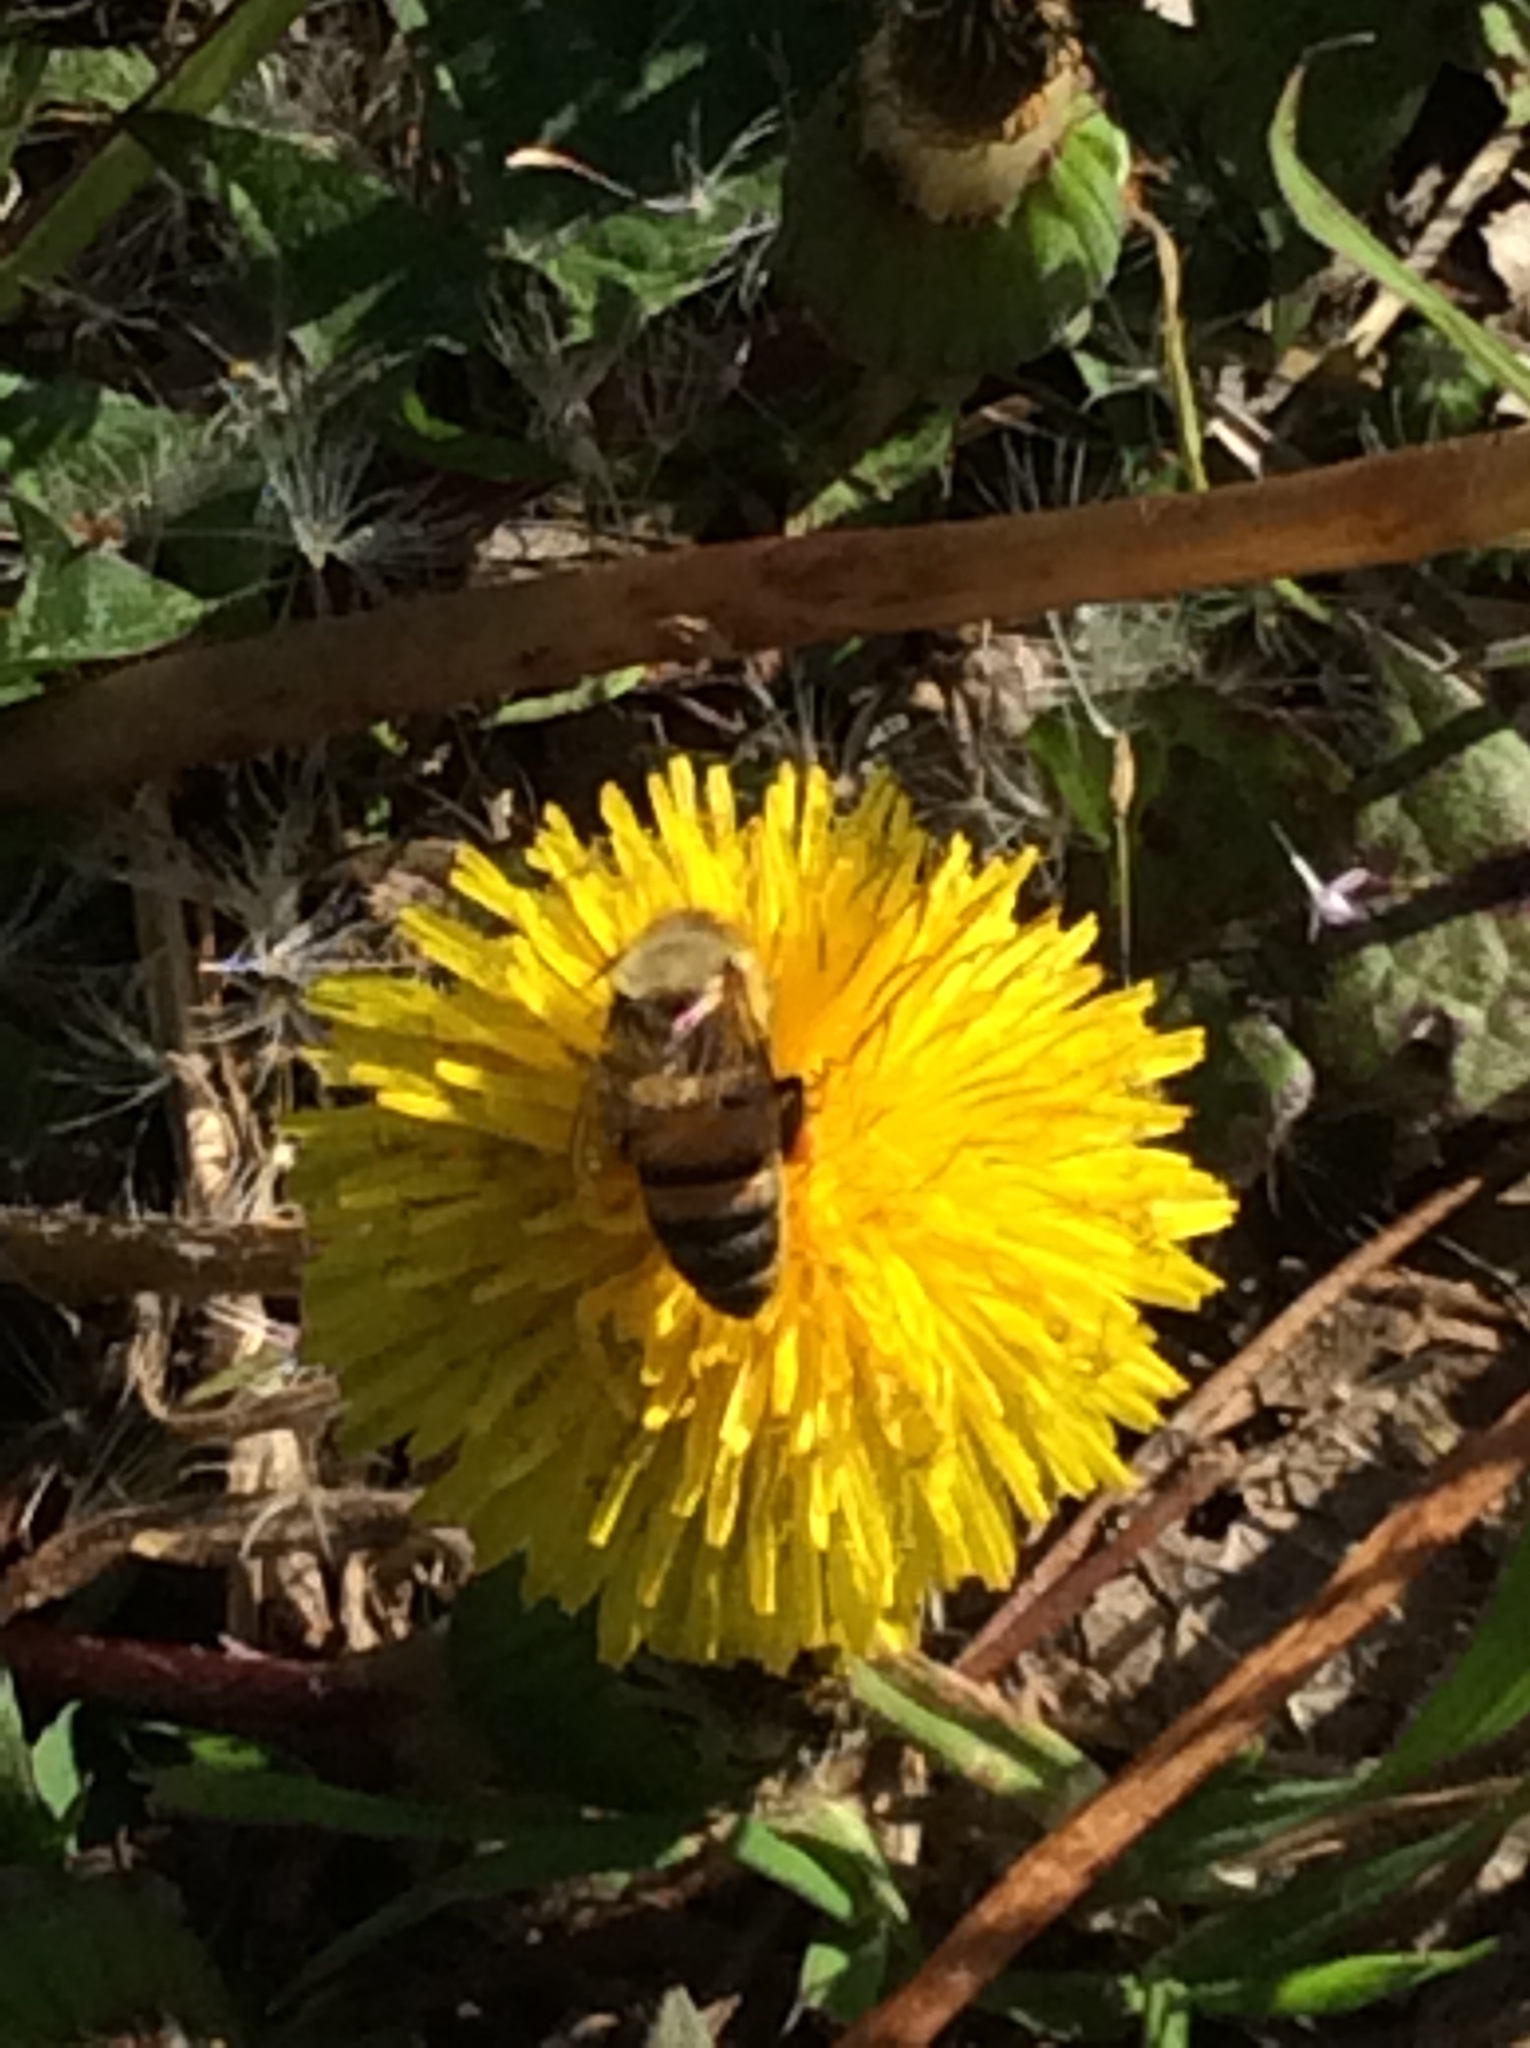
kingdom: Animalia
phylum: Arthropoda
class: Insecta
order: Hymenoptera
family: Apidae
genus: Apis
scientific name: Apis mellifera
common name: Honey bee
